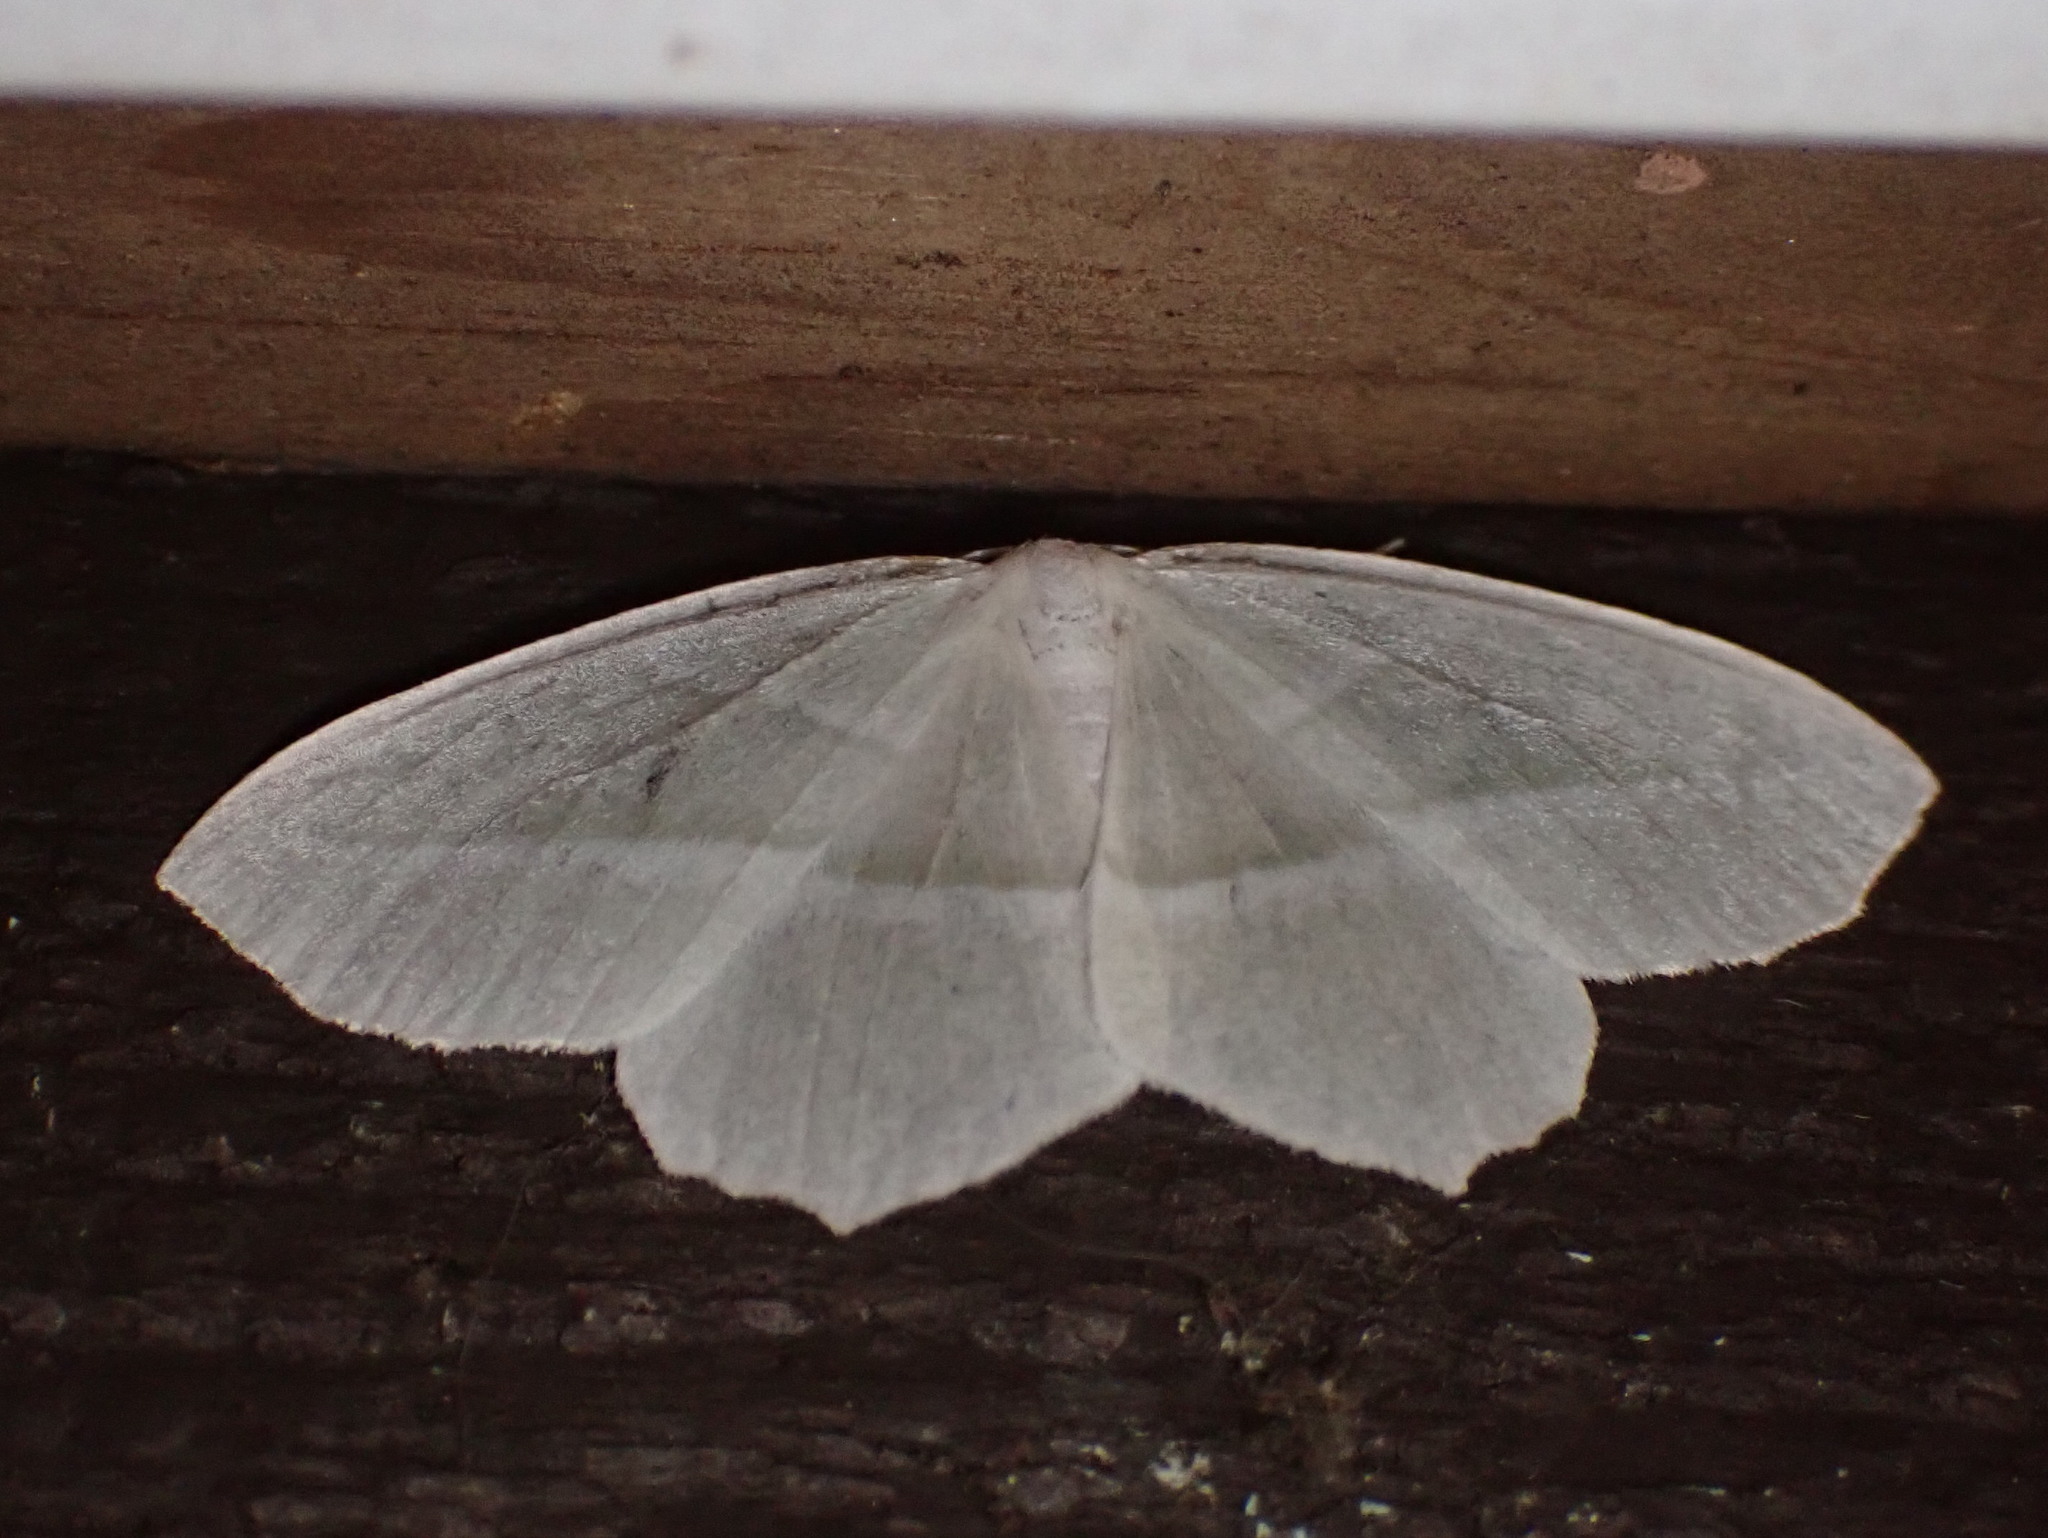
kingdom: Animalia
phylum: Arthropoda
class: Insecta
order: Lepidoptera
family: Geometridae
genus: Campaea
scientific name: Campaea perlata
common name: Fringed looper
